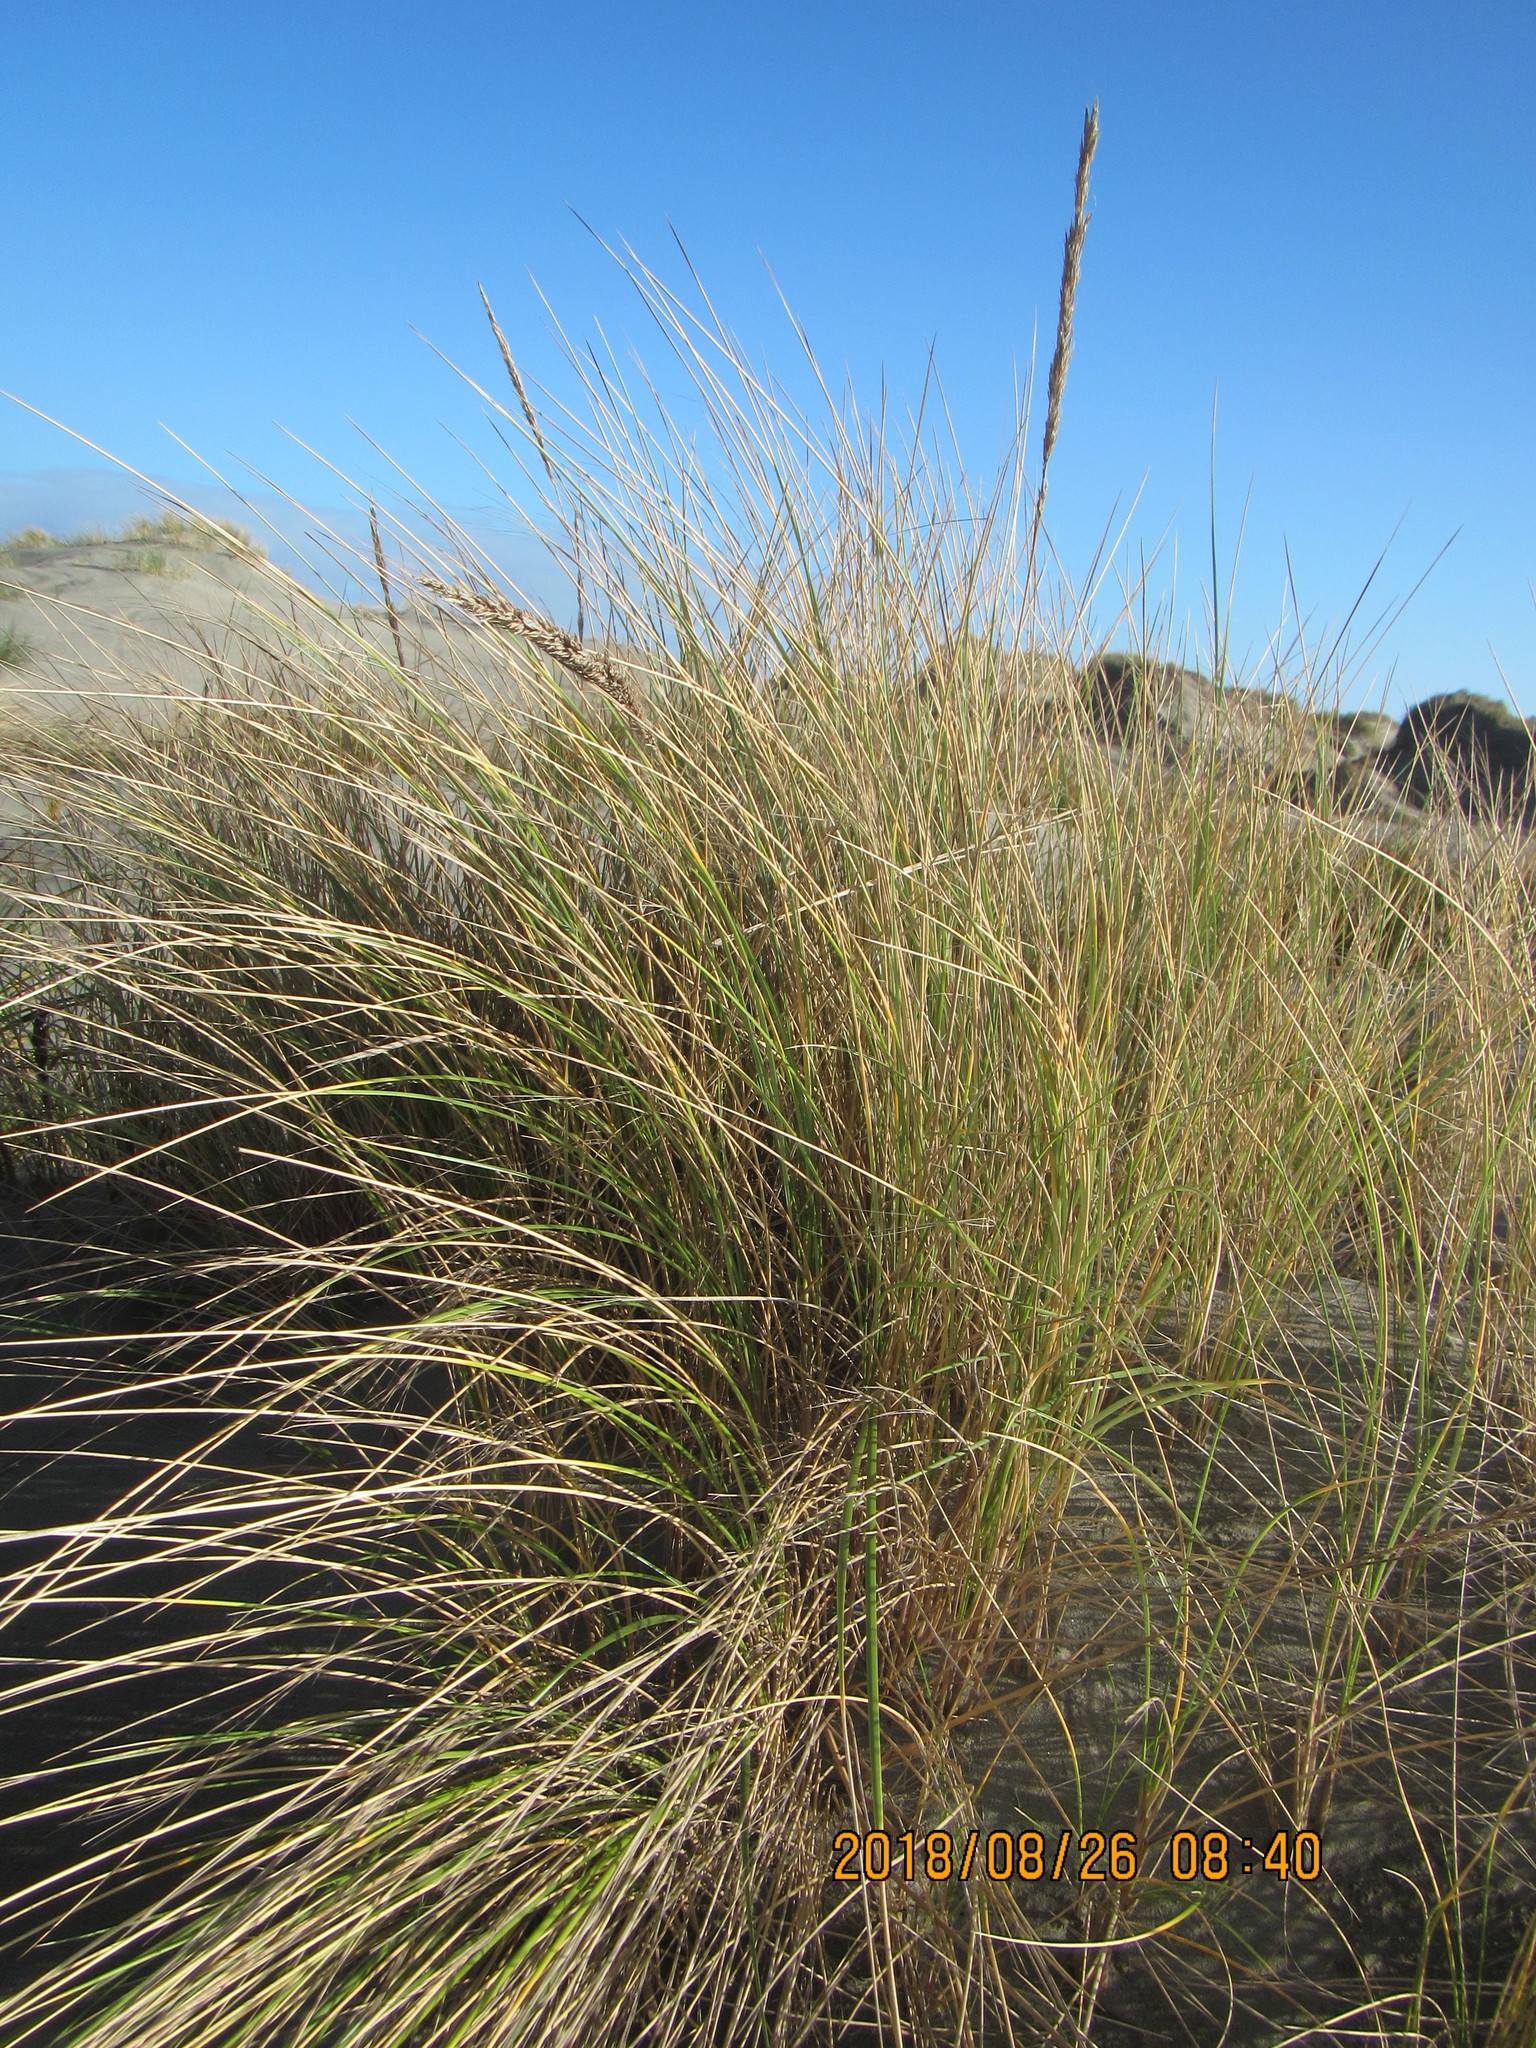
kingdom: Plantae
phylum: Tracheophyta
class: Liliopsida
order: Poales
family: Poaceae
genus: Calamagrostis
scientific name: Calamagrostis arenaria
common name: European beachgrass
